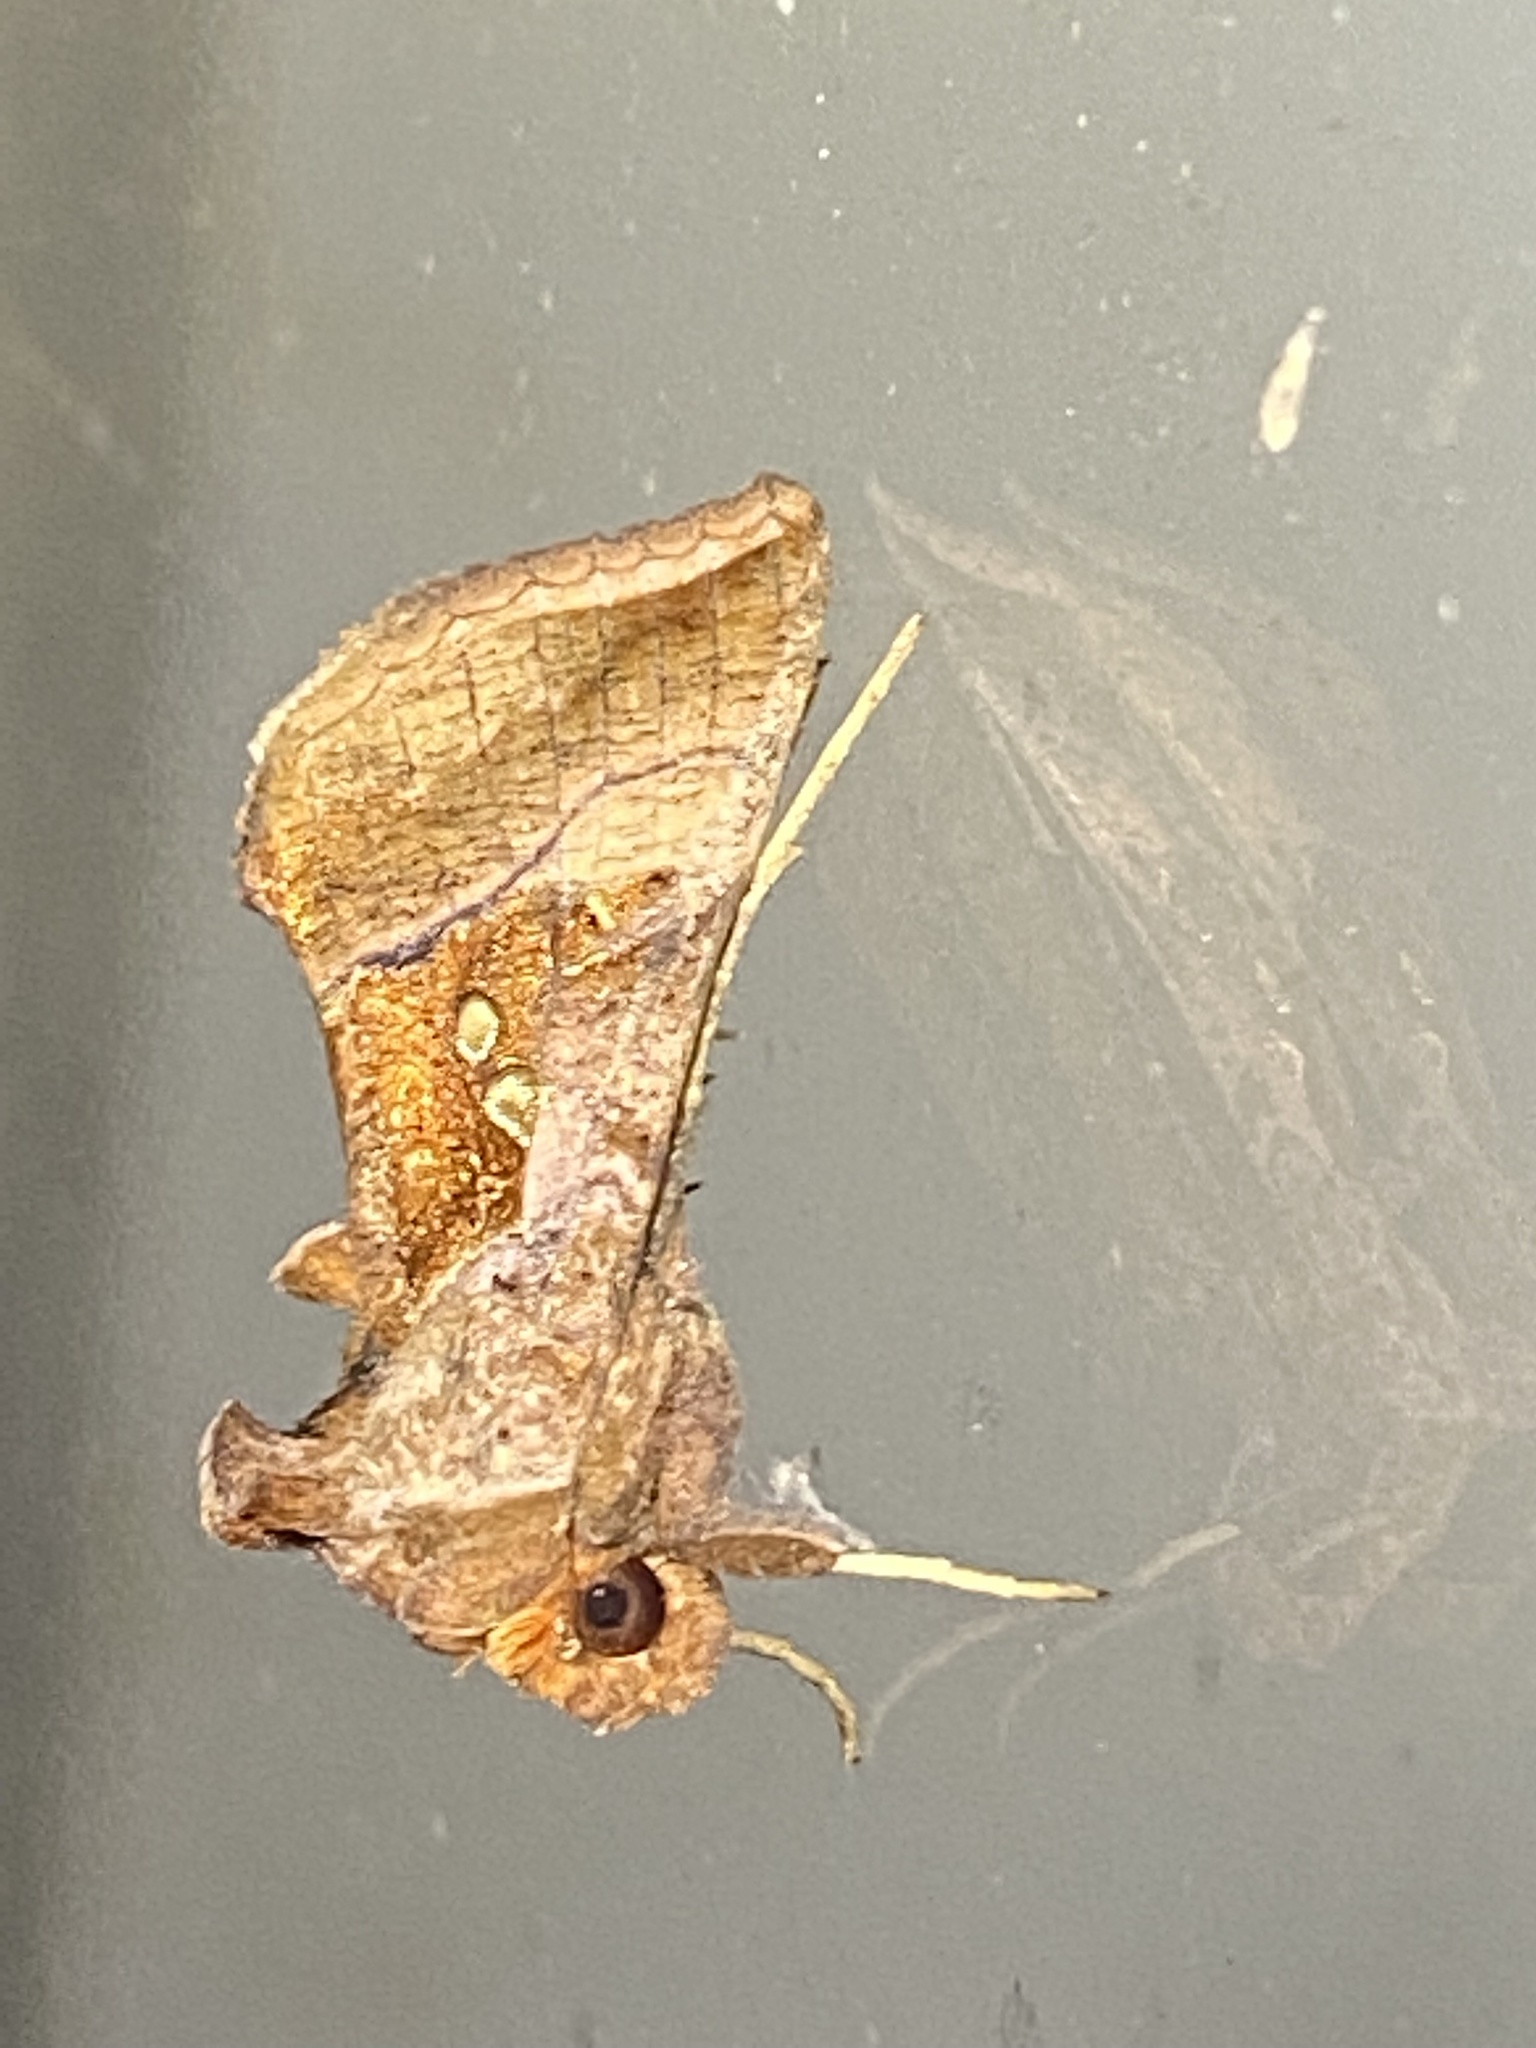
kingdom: Animalia
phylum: Arthropoda
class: Insecta
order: Lepidoptera
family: Noctuidae
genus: Enigmogramma
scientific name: Enigmogramma basigera
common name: Pink-washed looper moth
